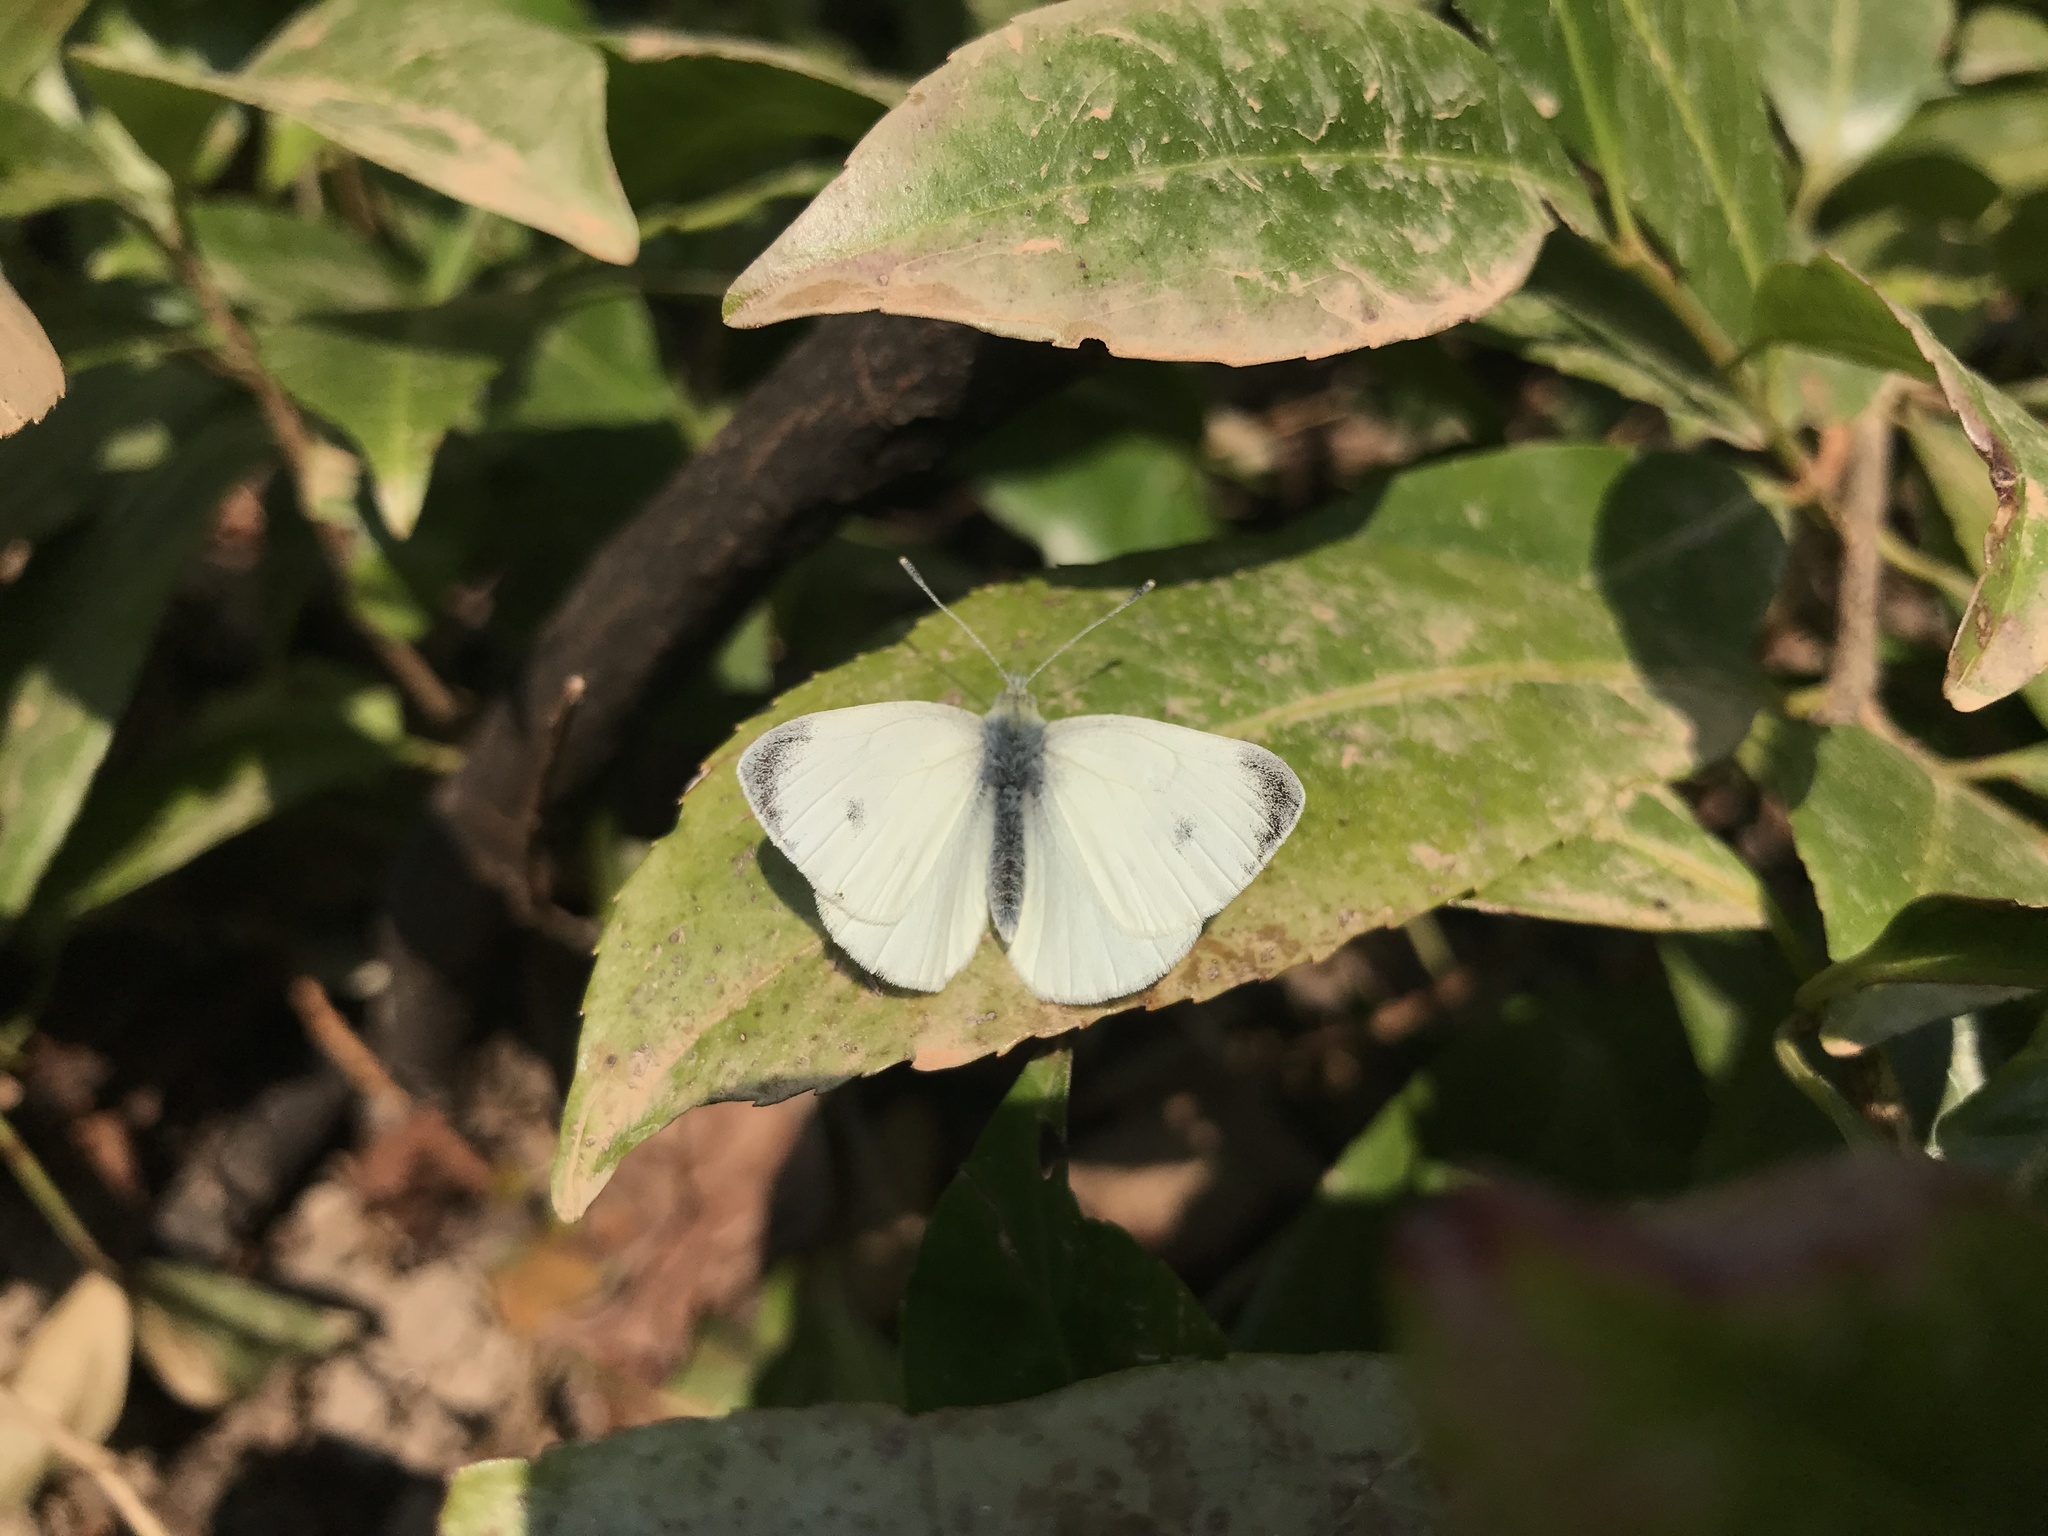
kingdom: Animalia
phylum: Arthropoda
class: Insecta
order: Lepidoptera
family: Pieridae
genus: Pieris
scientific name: Pieris rapae
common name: Small white
